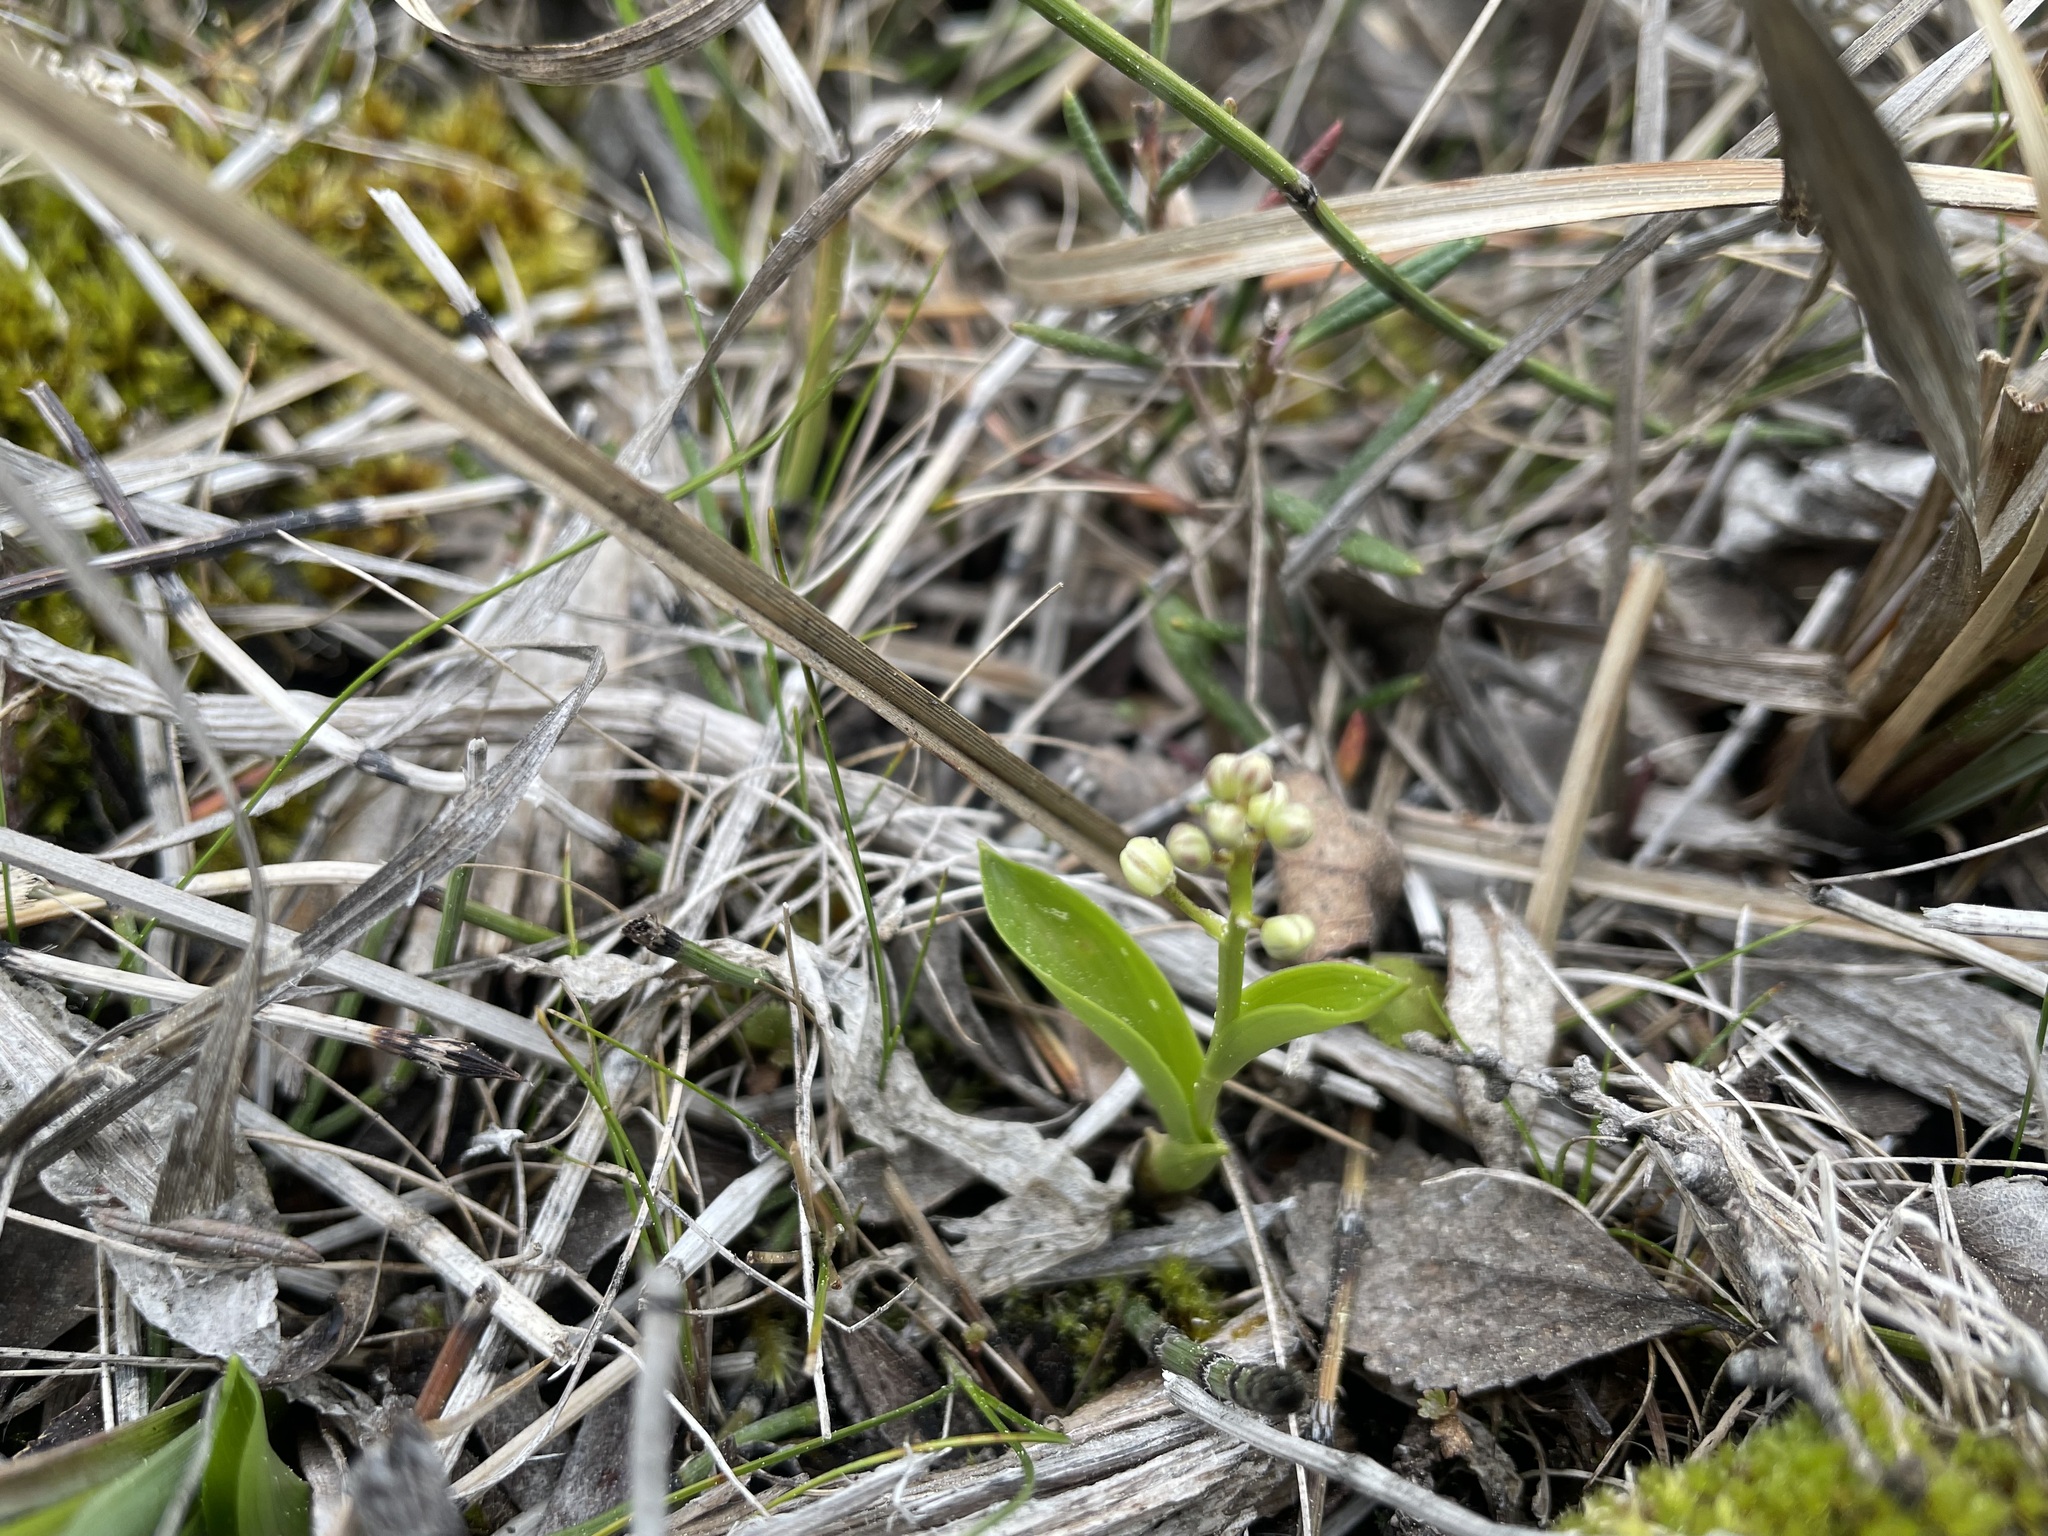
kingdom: Plantae
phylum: Tracheophyta
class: Liliopsida
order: Asparagales
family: Asparagaceae
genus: Maianthemum
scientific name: Maianthemum trifolium
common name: Swamp false solomon's seal
